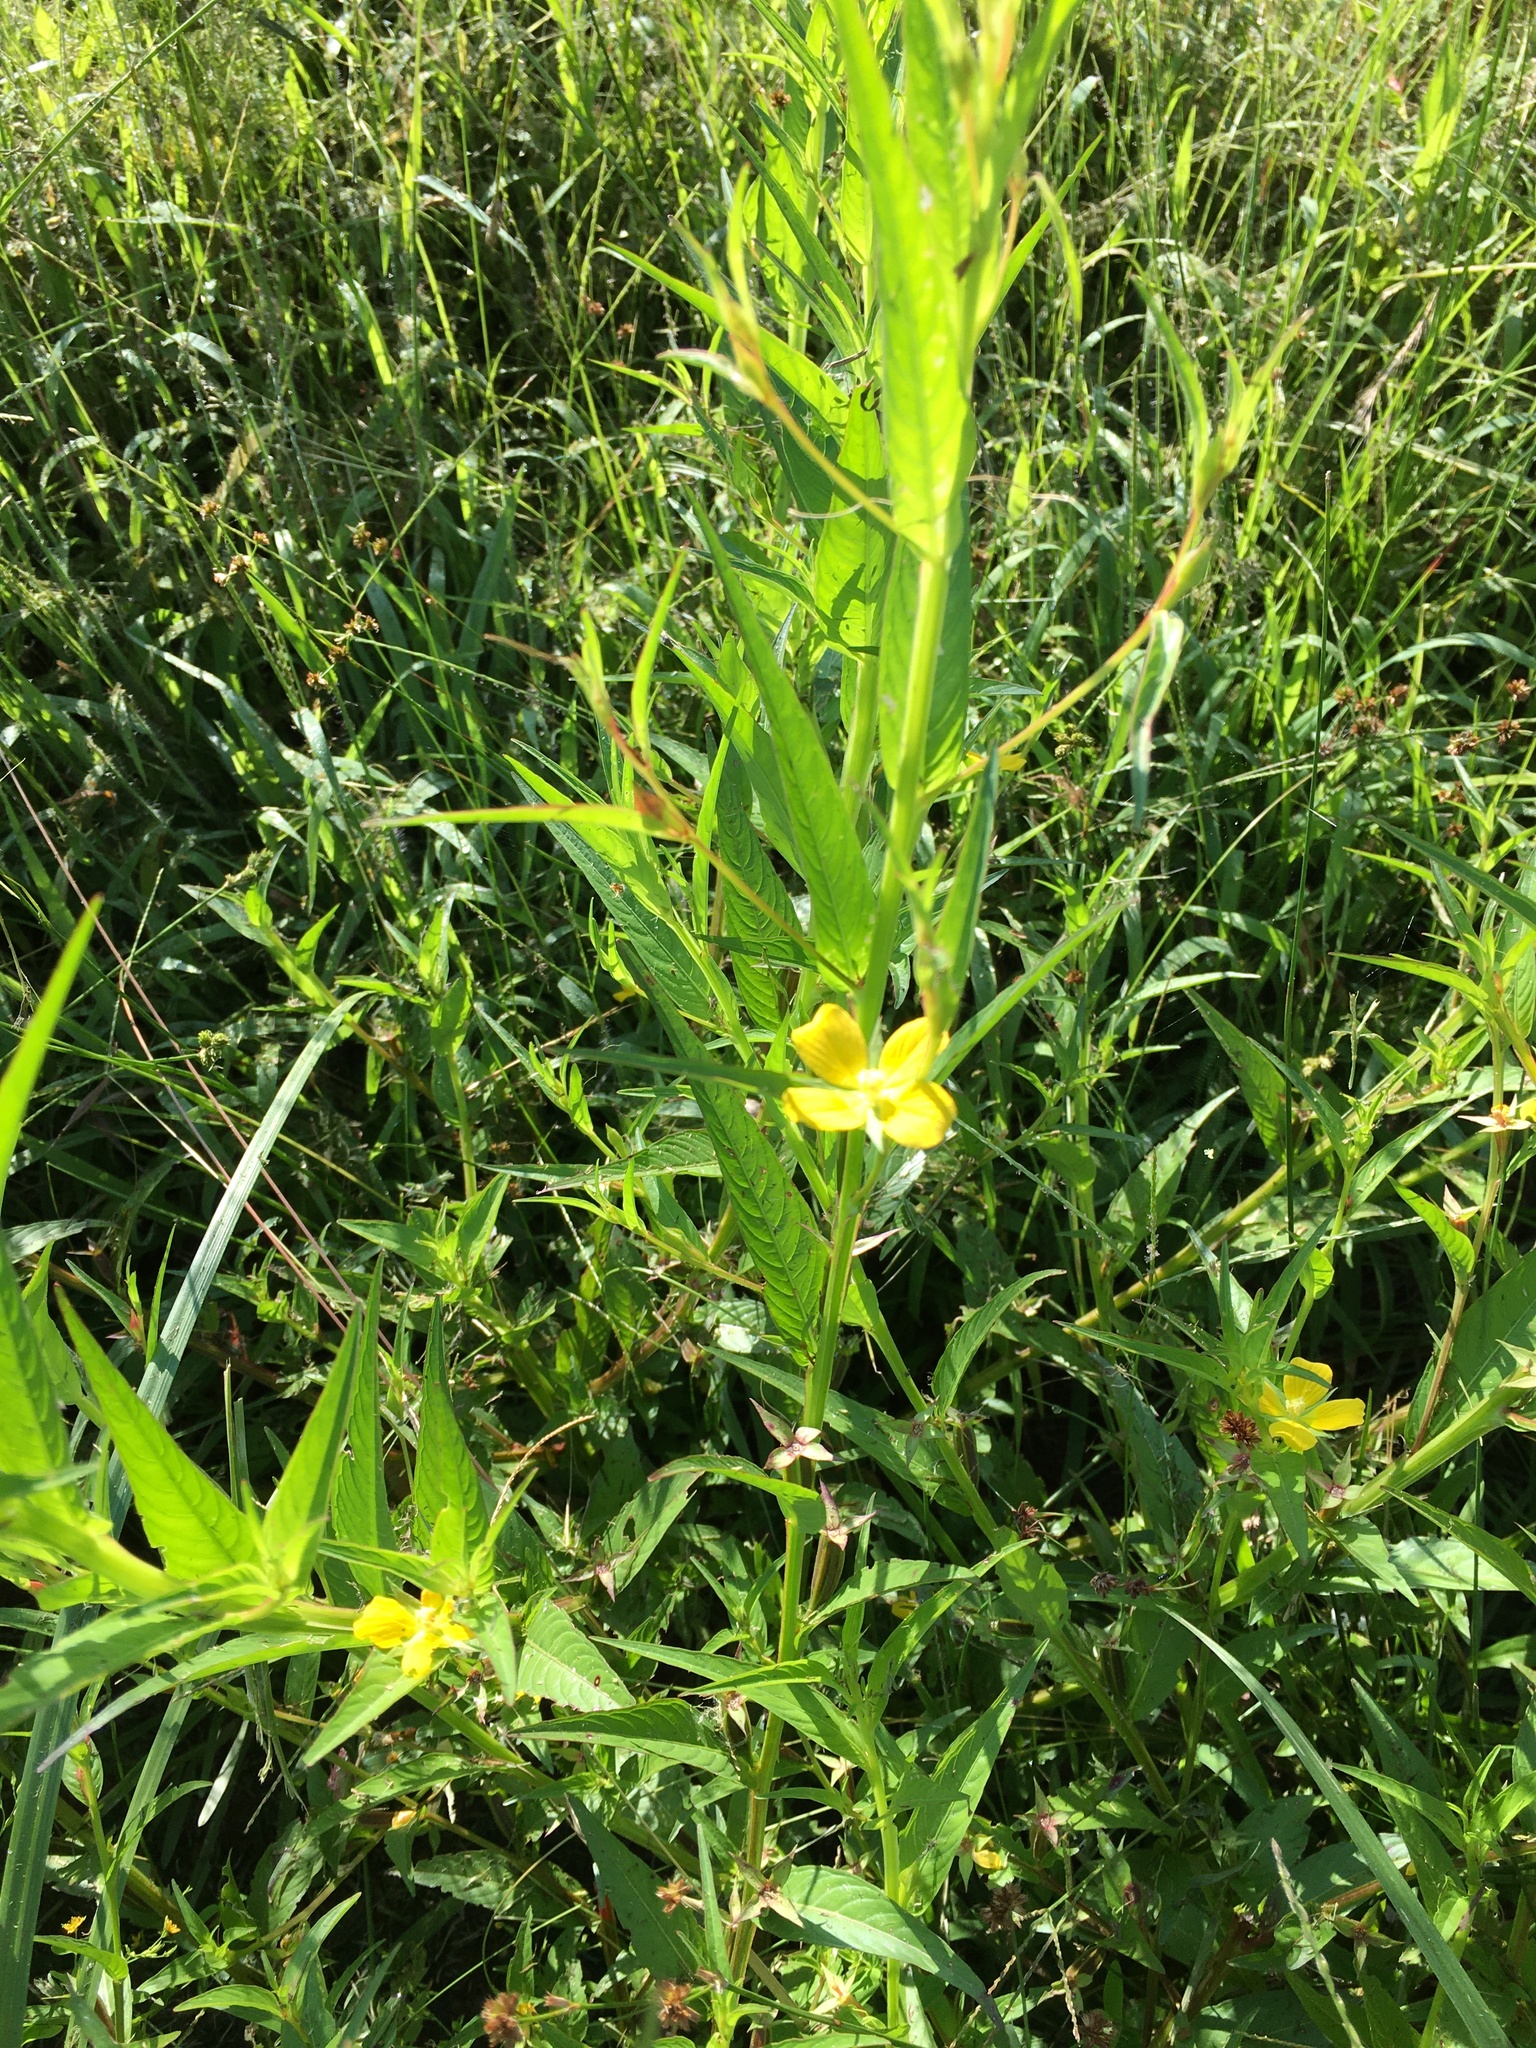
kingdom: Plantae
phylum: Tracheophyta
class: Magnoliopsida
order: Myrtales
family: Onagraceae
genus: Ludwigia
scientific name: Ludwigia decurrens
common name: Winged water-primrose
